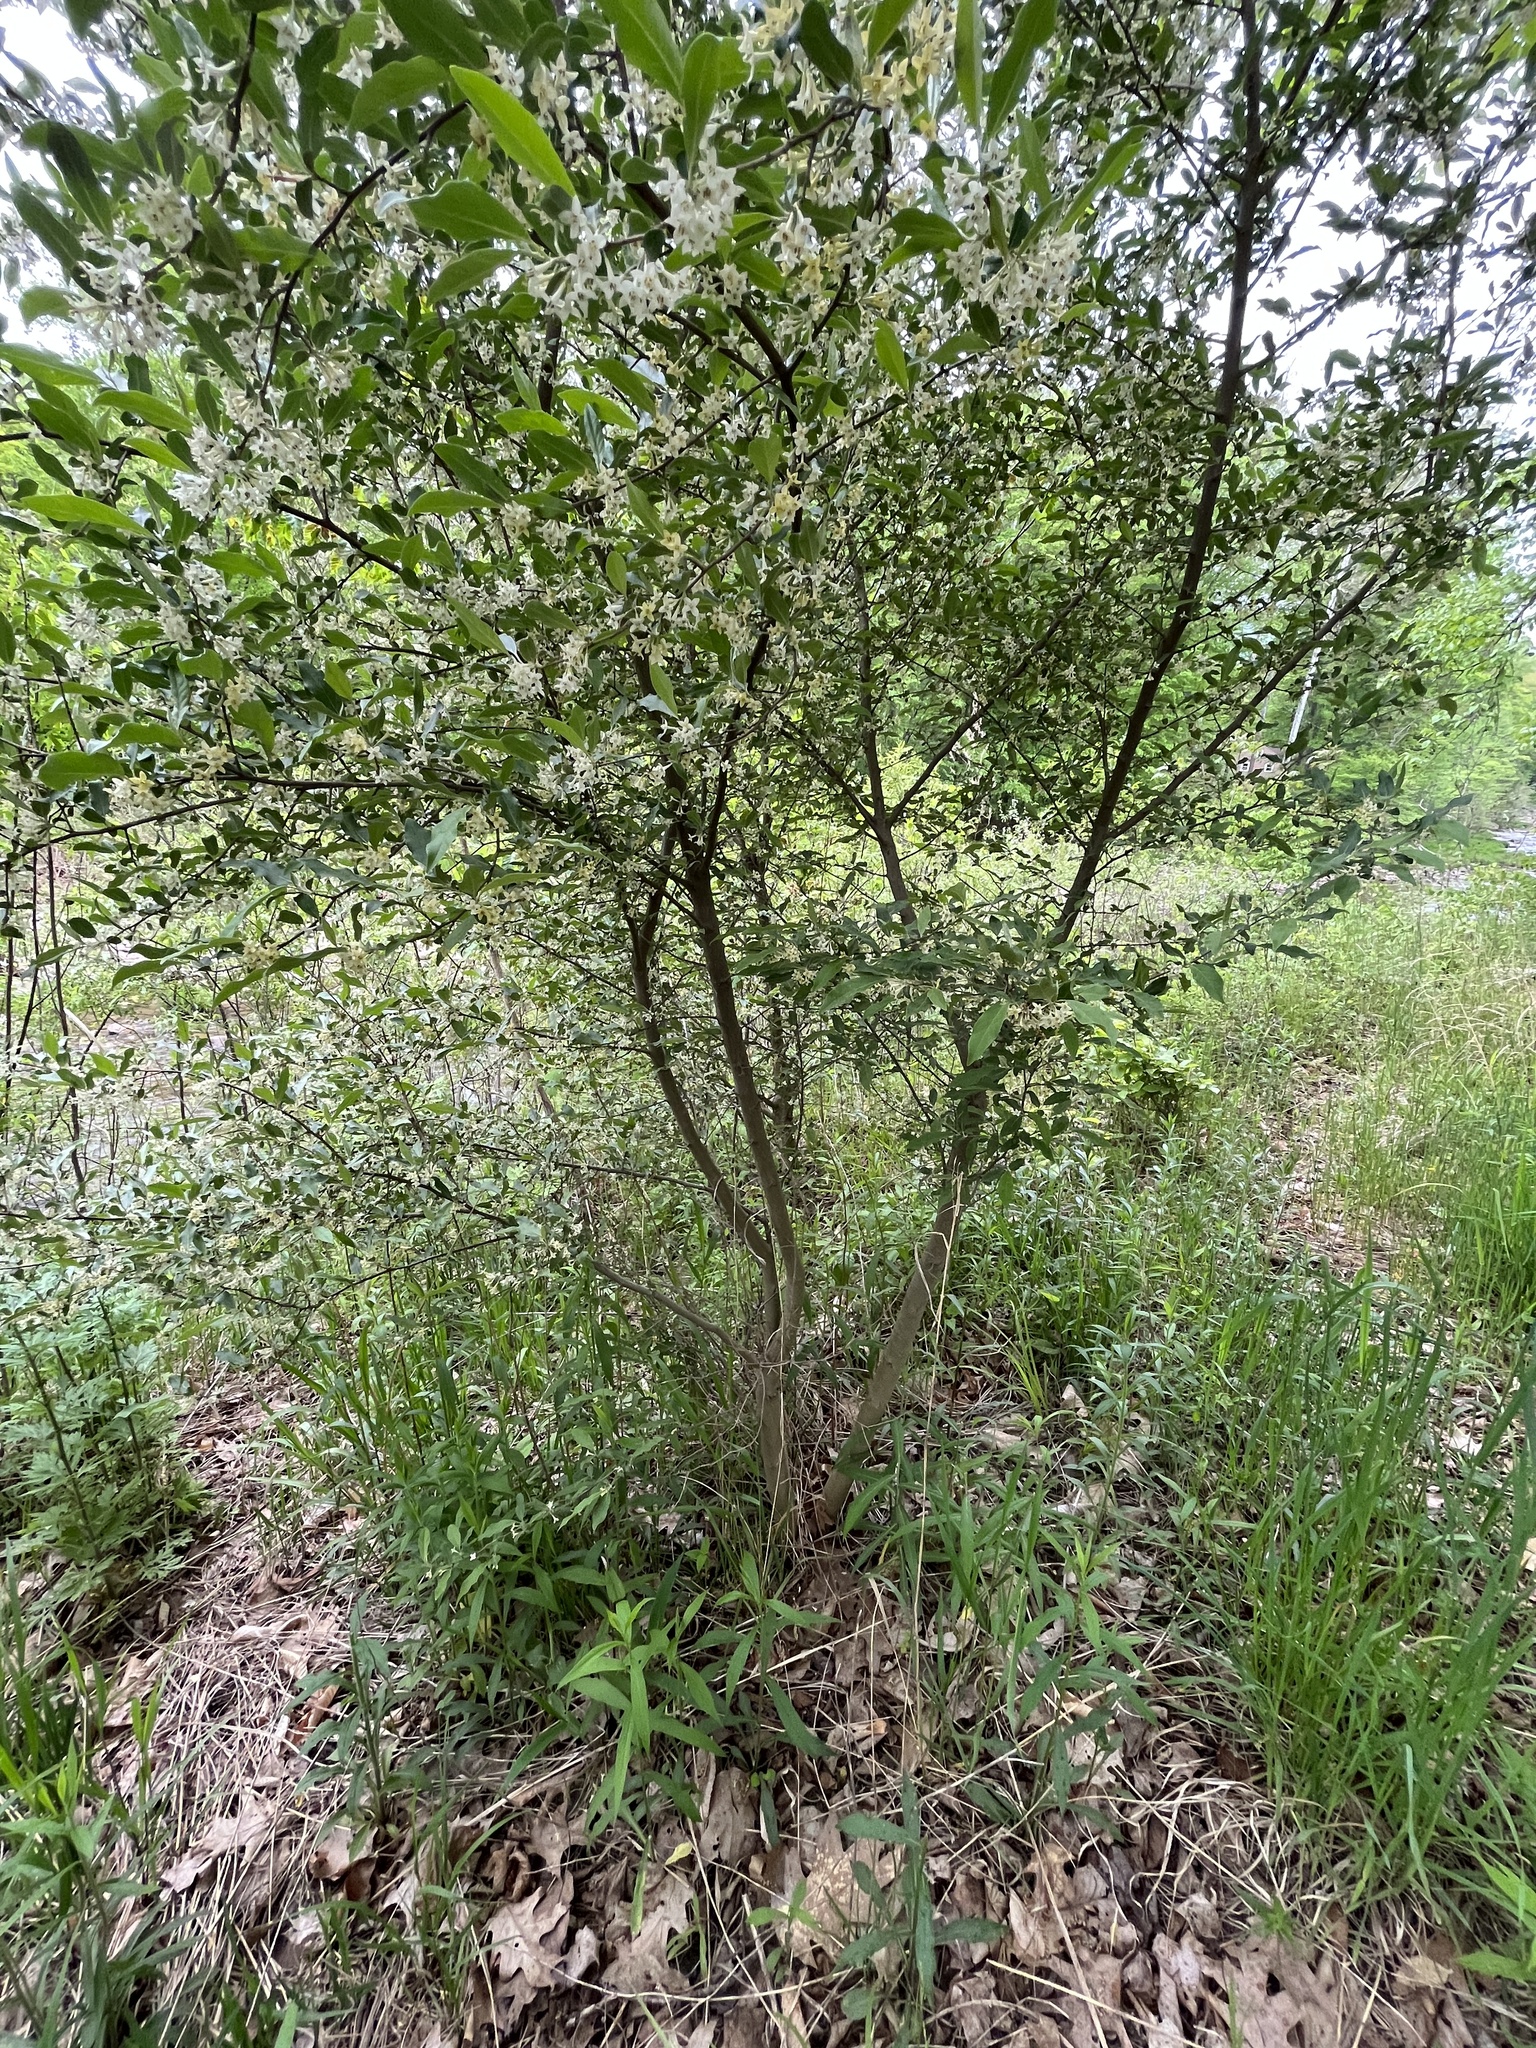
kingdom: Plantae
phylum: Tracheophyta
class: Magnoliopsida
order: Rosales
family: Elaeagnaceae
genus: Elaeagnus
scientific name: Elaeagnus umbellata
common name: Autumn olive
